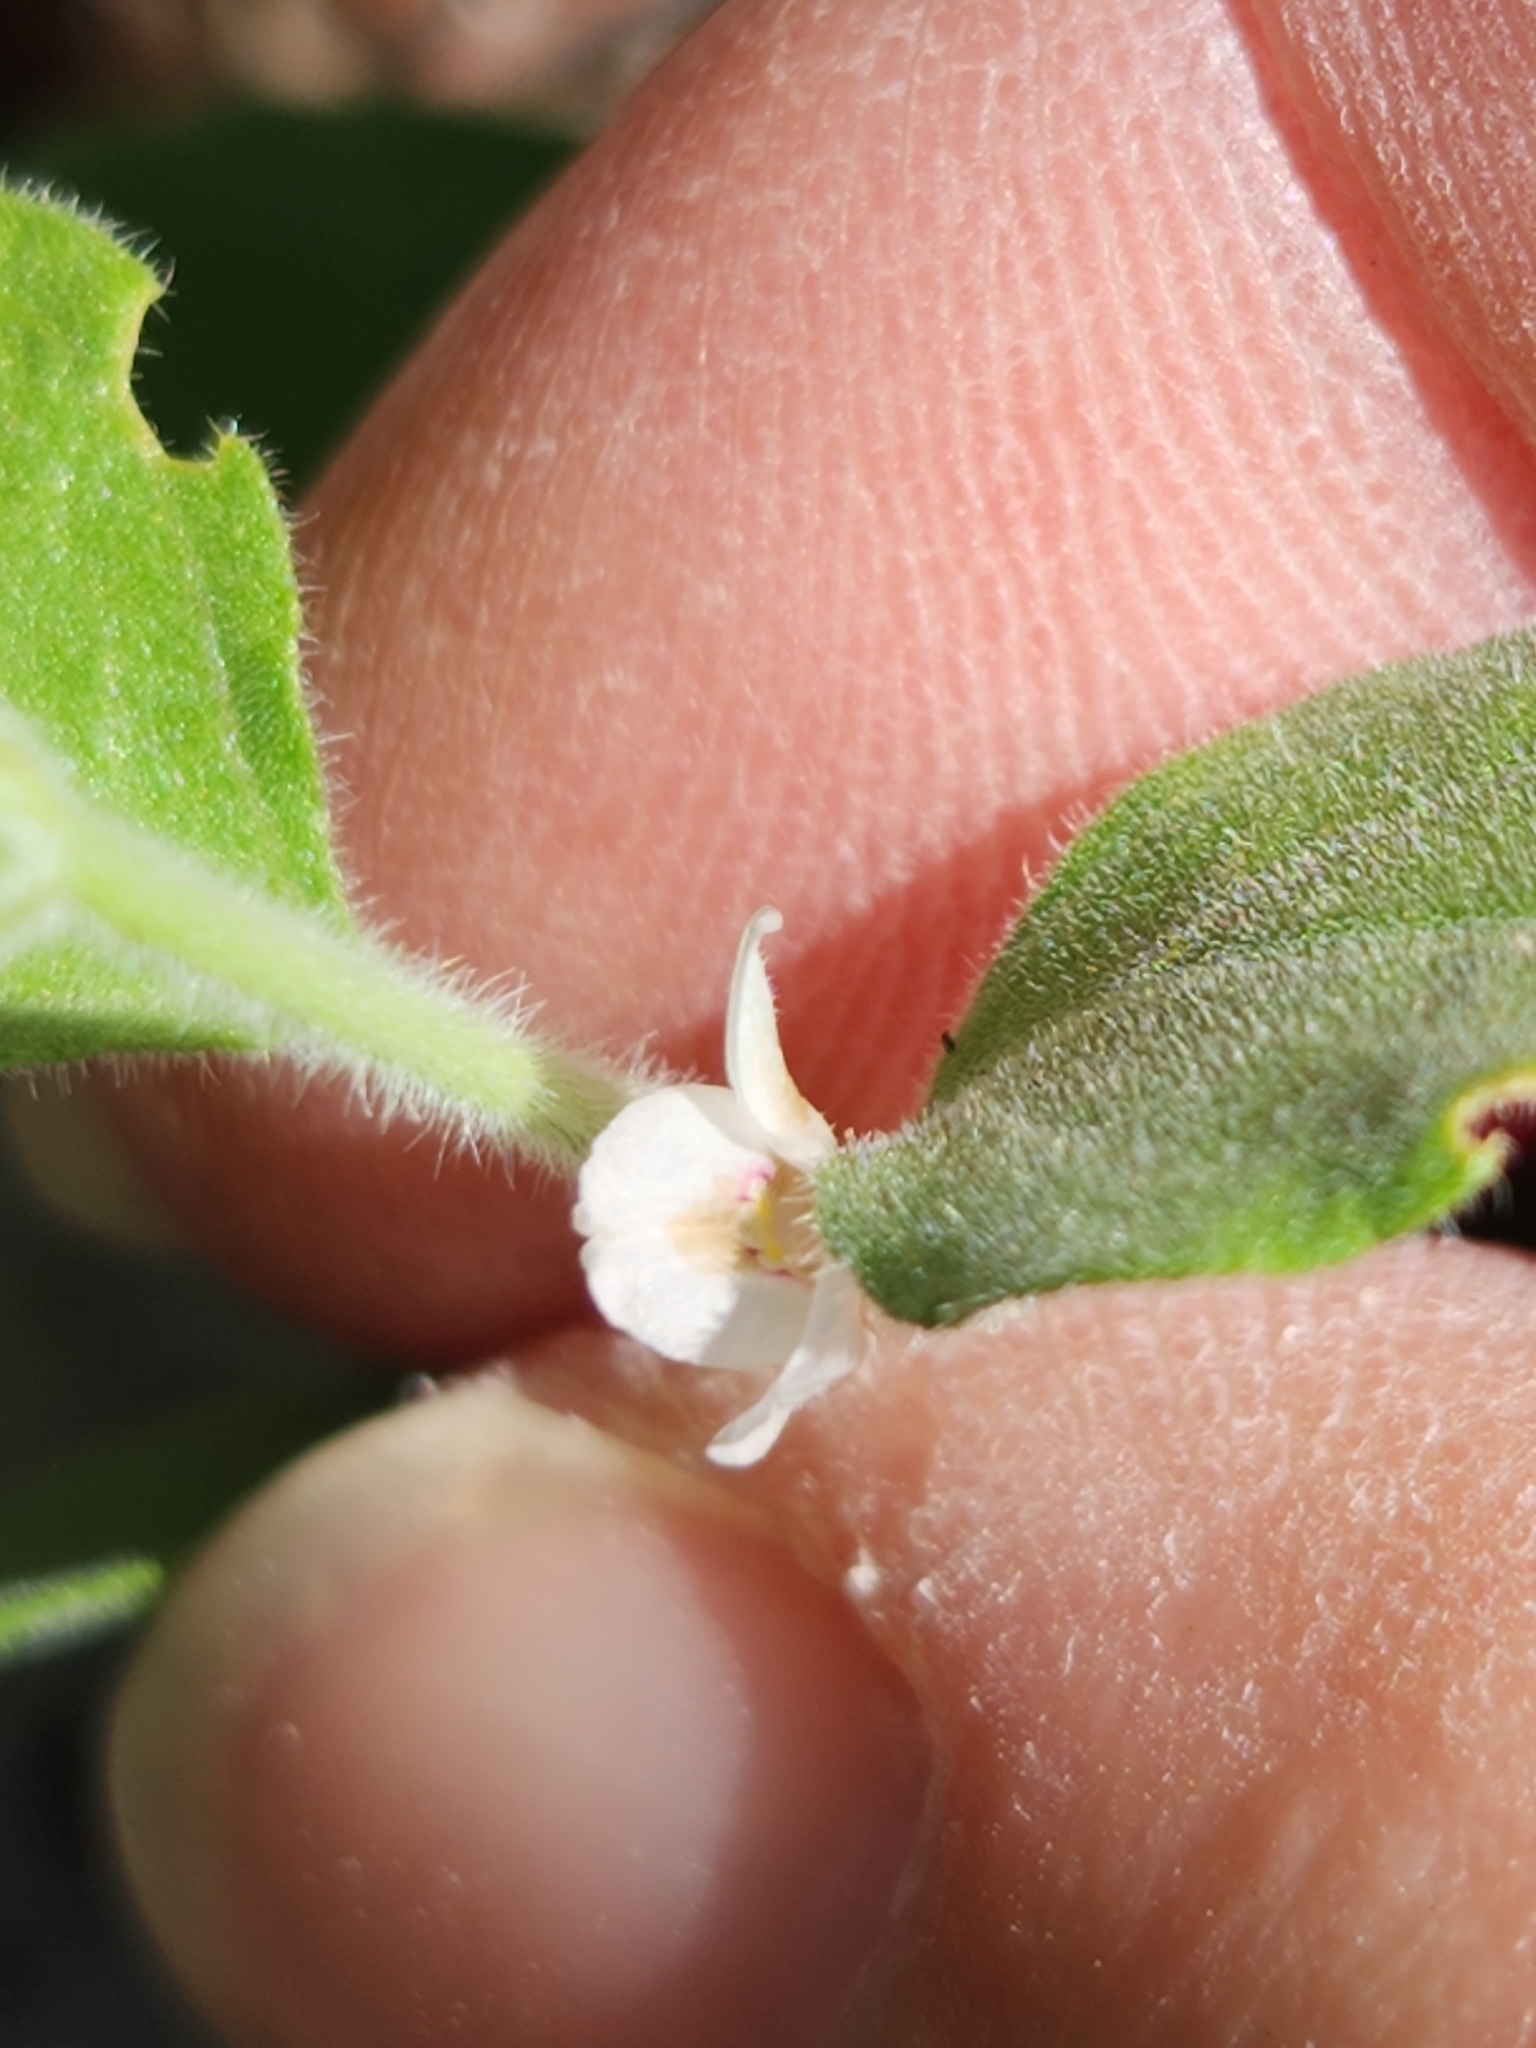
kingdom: Plantae
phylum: Tracheophyta
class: Magnoliopsida
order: Lamiales
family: Acanthaceae
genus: Carlowrightia
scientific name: Carlowrightia torreyana
